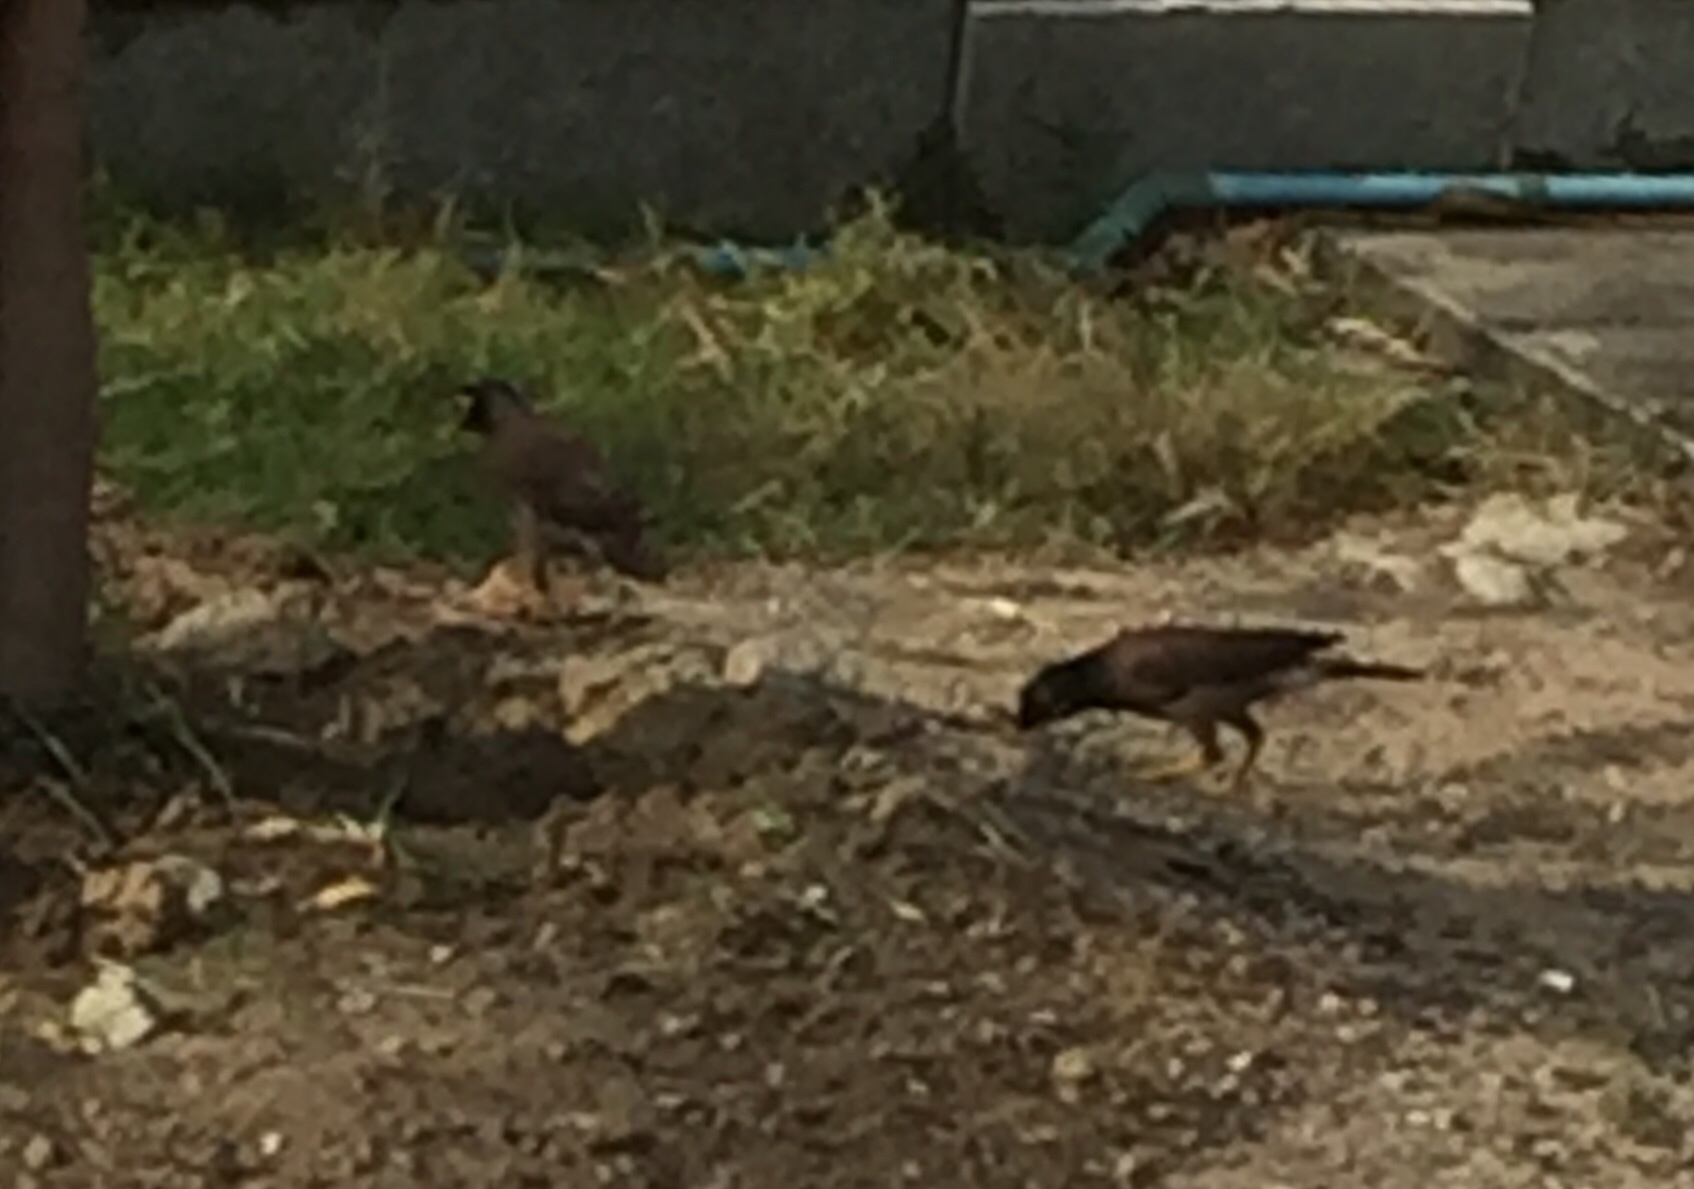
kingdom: Animalia
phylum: Chordata
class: Aves
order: Passeriformes
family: Sturnidae
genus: Acridotheres
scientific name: Acridotheres tristis
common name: Common myna
